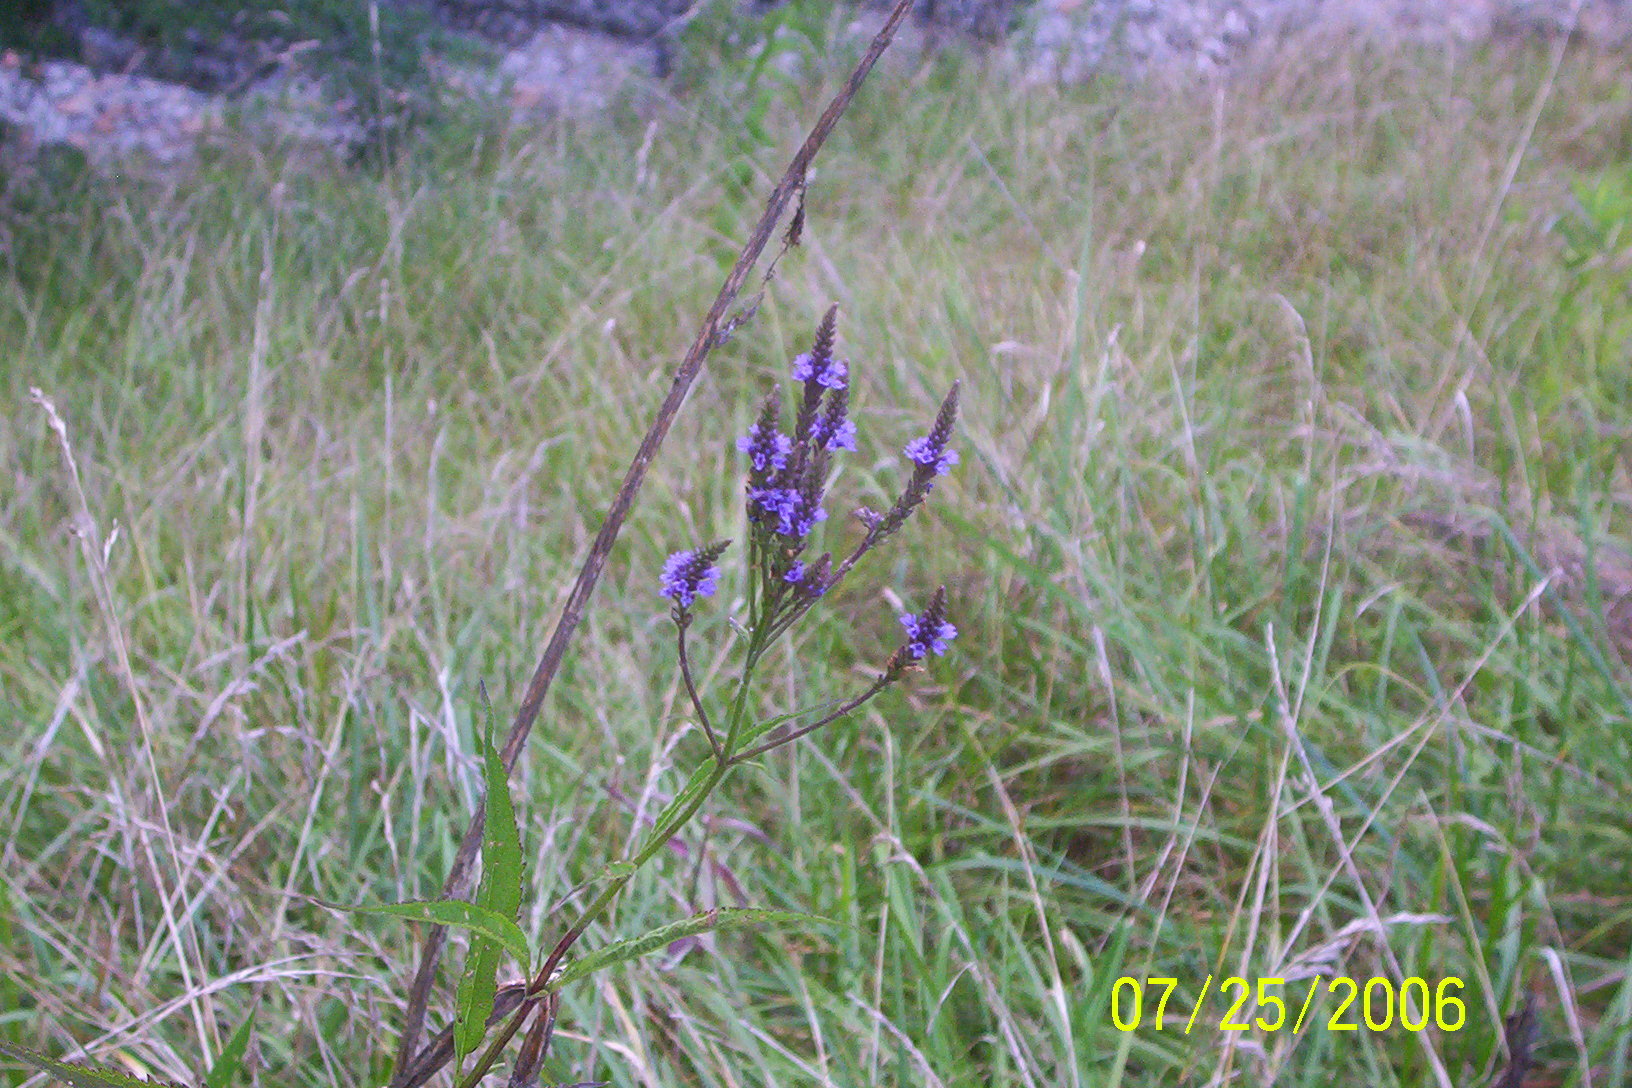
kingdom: Plantae
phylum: Tracheophyta
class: Magnoliopsida
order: Lamiales
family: Verbenaceae
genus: Verbena
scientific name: Verbena hastata
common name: American blue vervain
